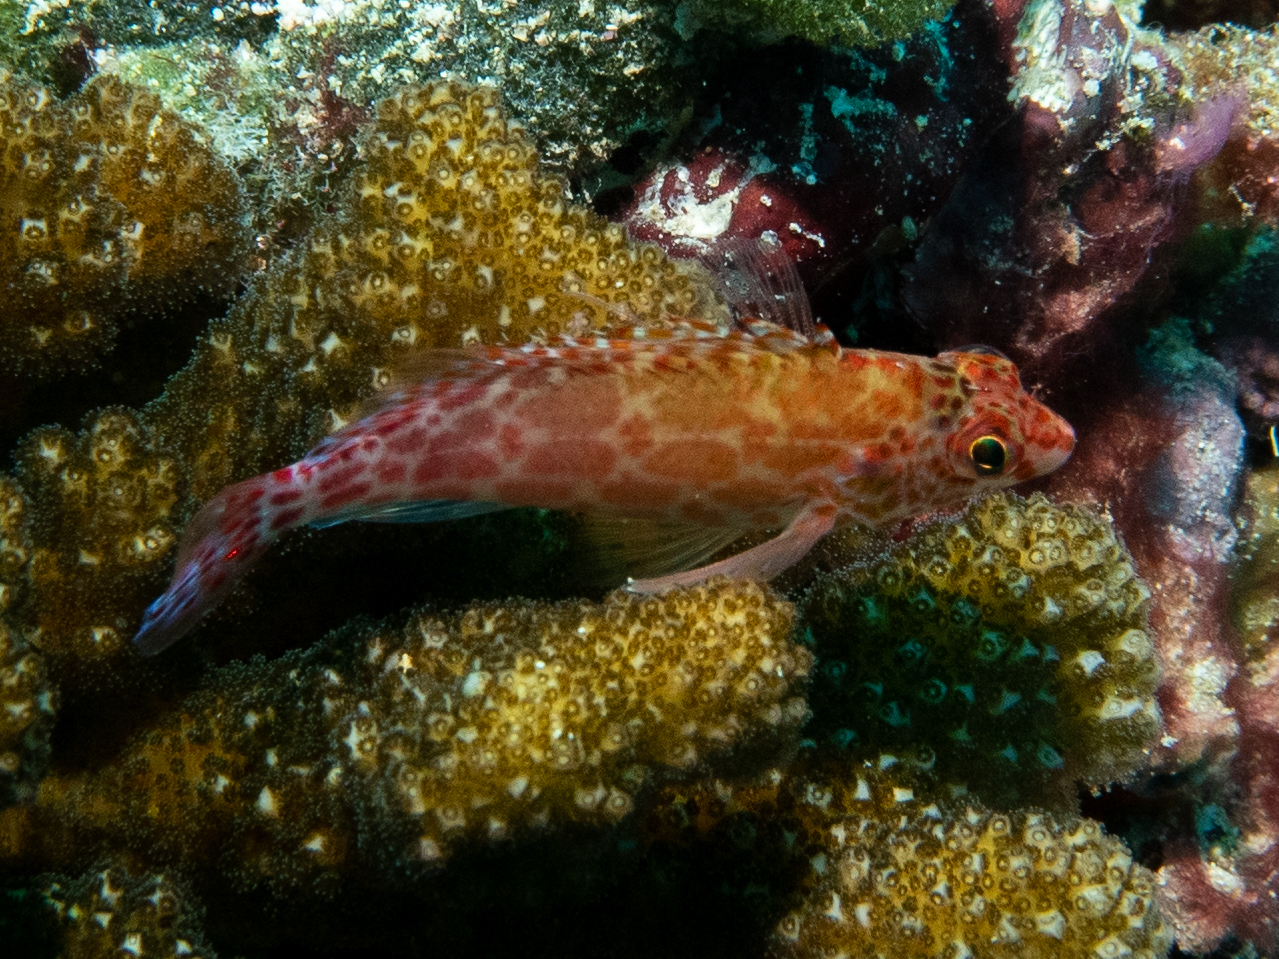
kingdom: Animalia
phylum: Chordata
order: Perciformes
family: Cirrhitidae
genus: Cirrhitichthys
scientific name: Cirrhitichthys oxycephalus
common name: Spotted hawkfish
